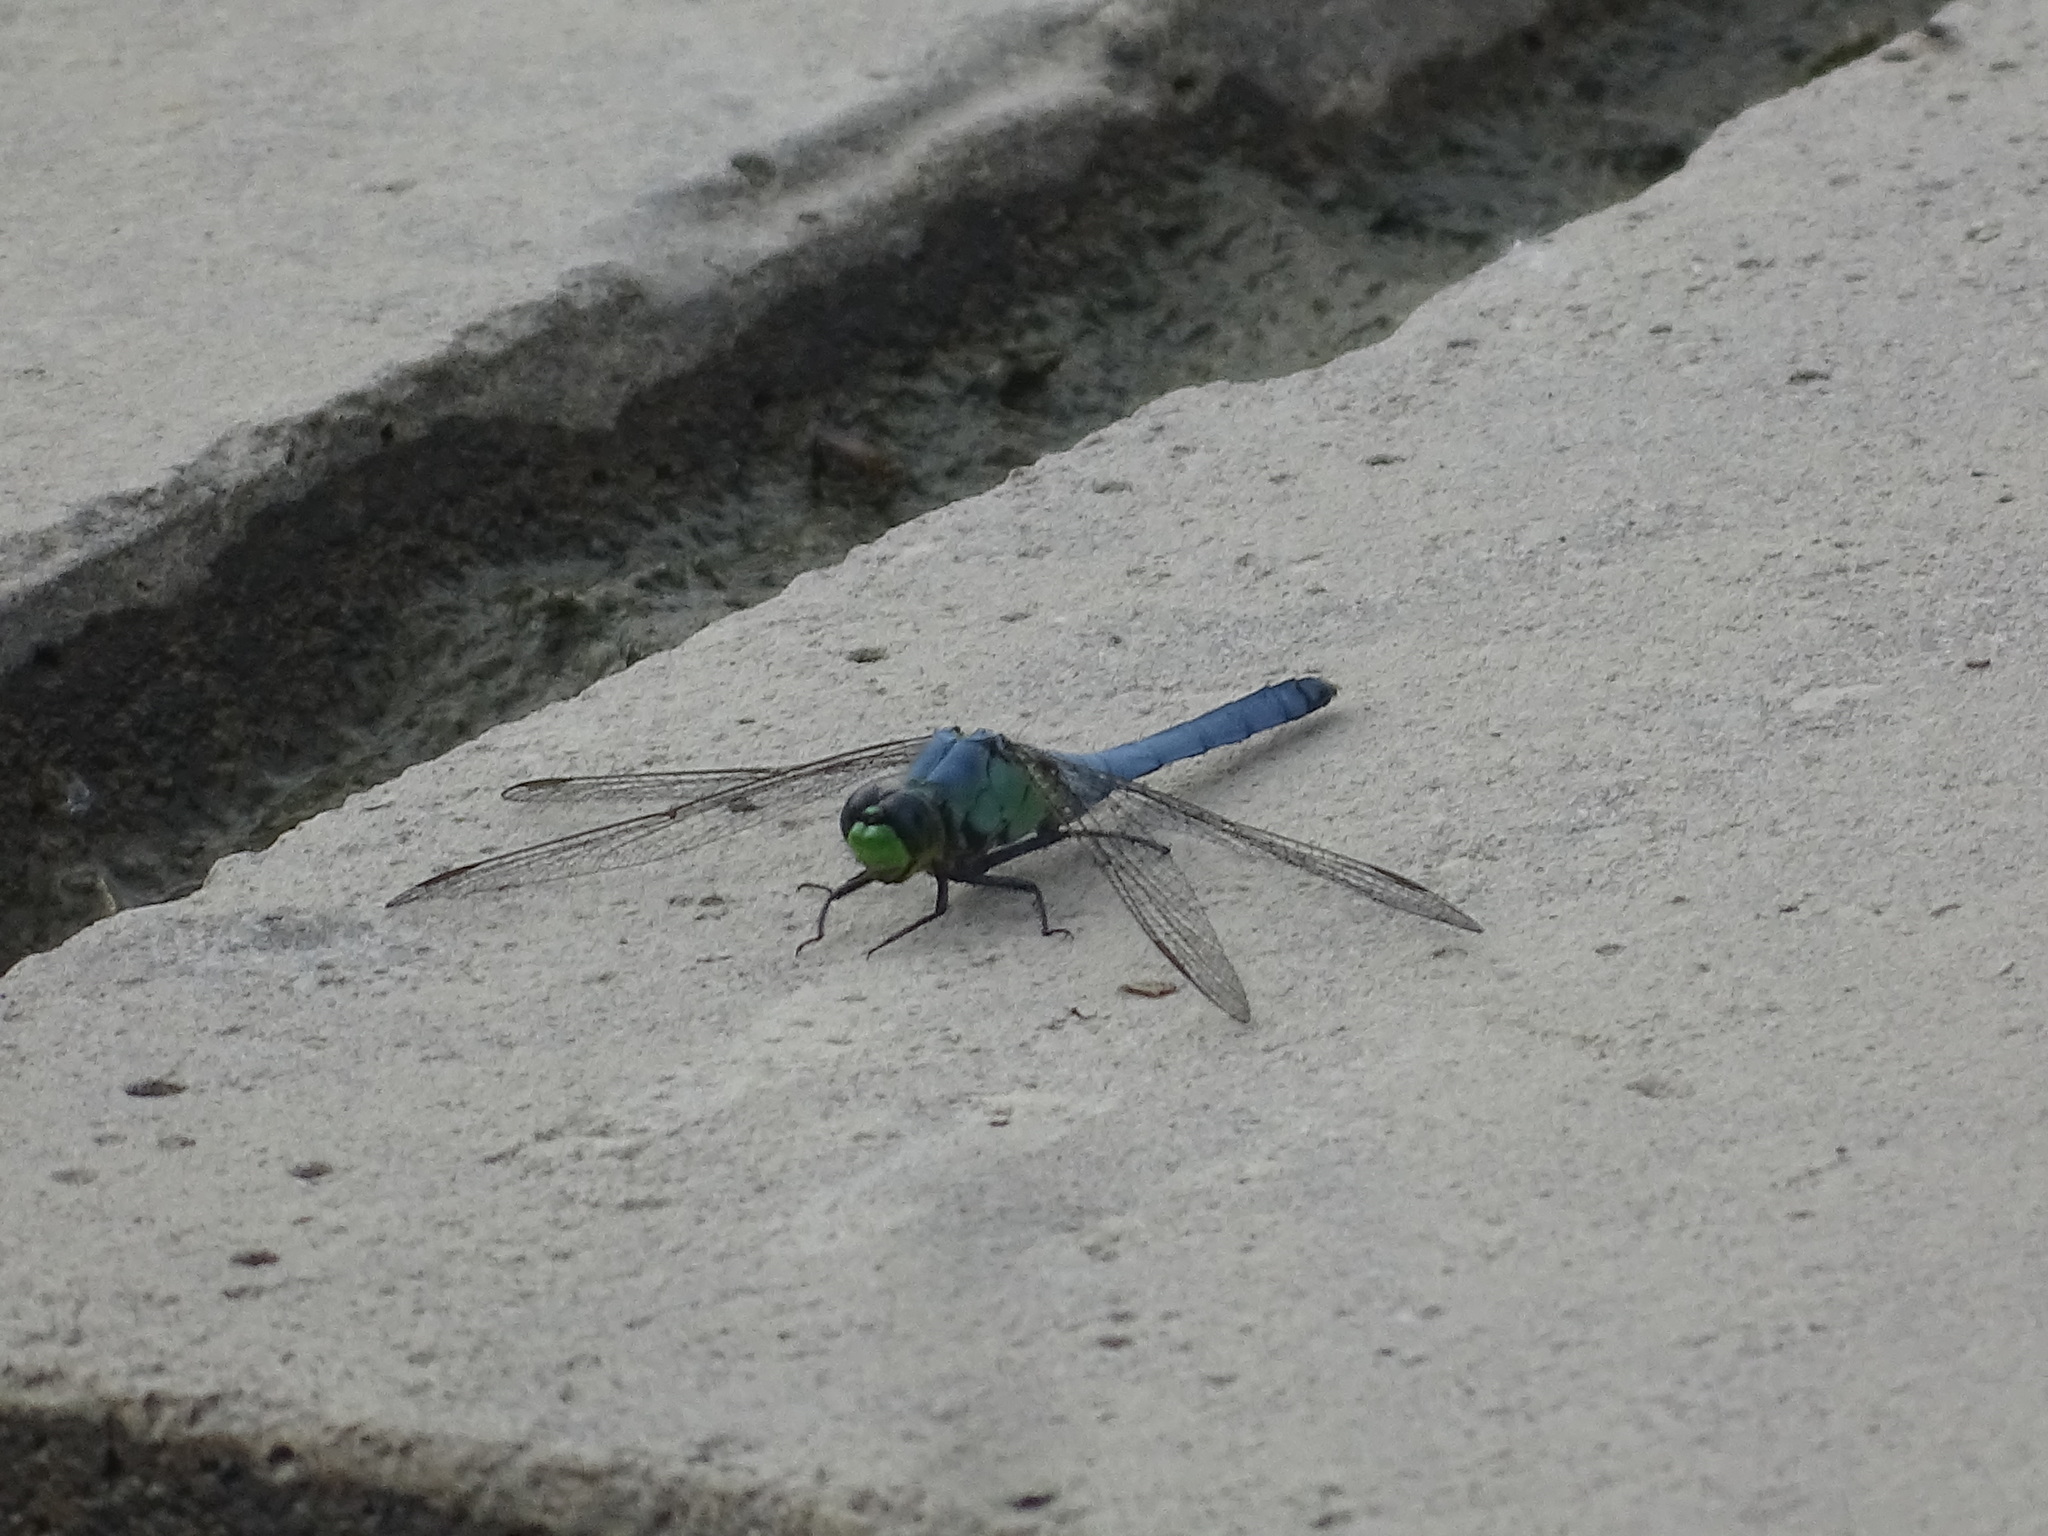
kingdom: Animalia
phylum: Arthropoda
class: Insecta
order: Odonata
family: Libellulidae
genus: Erythemis
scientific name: Erythemis simplicicollis
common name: Eastern pondhawk
